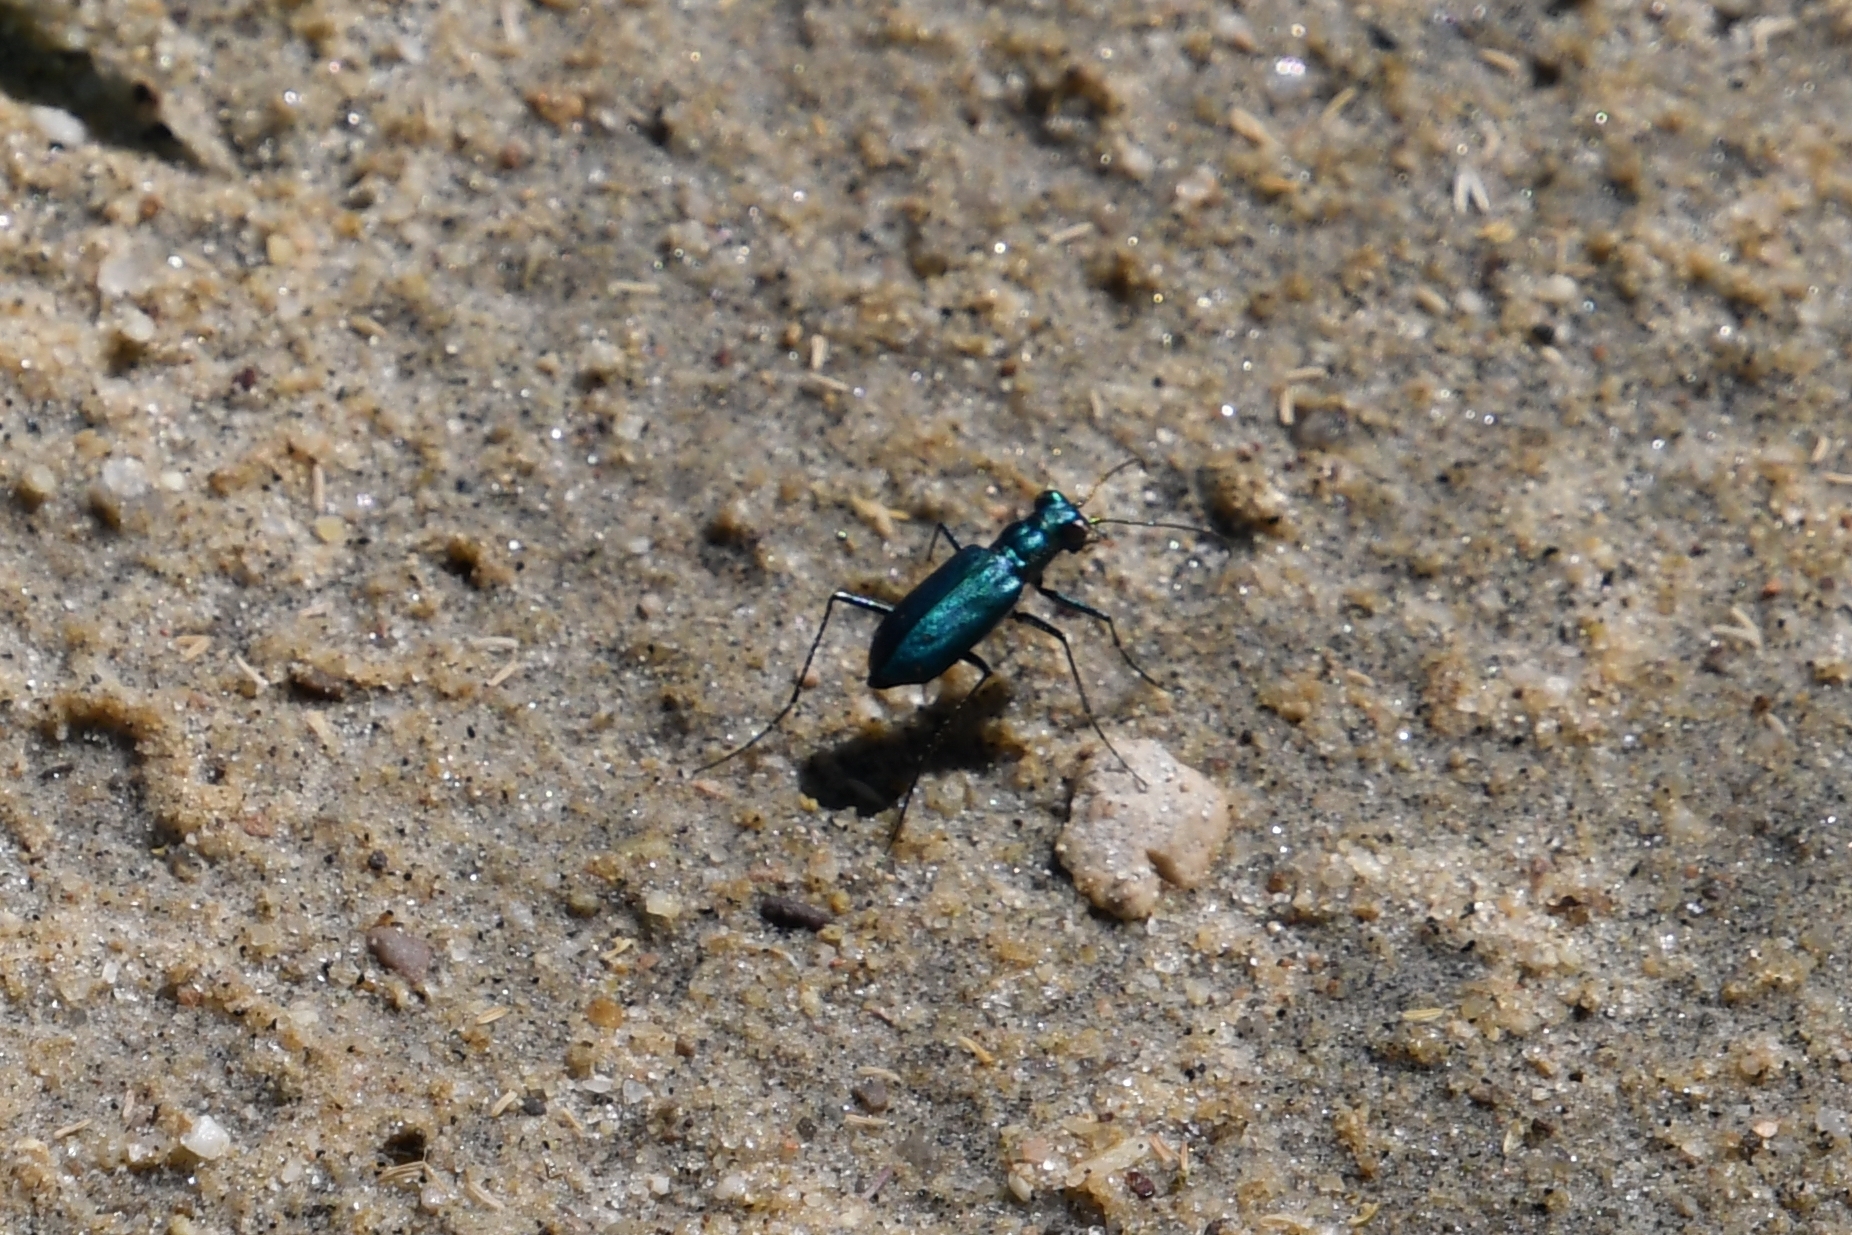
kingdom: Animalia
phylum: Arthropoda
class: Insecta
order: Coleoptera
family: Carabidae
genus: Cicindela
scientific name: Cicindela punctulata
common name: Punctured tiger beetle
